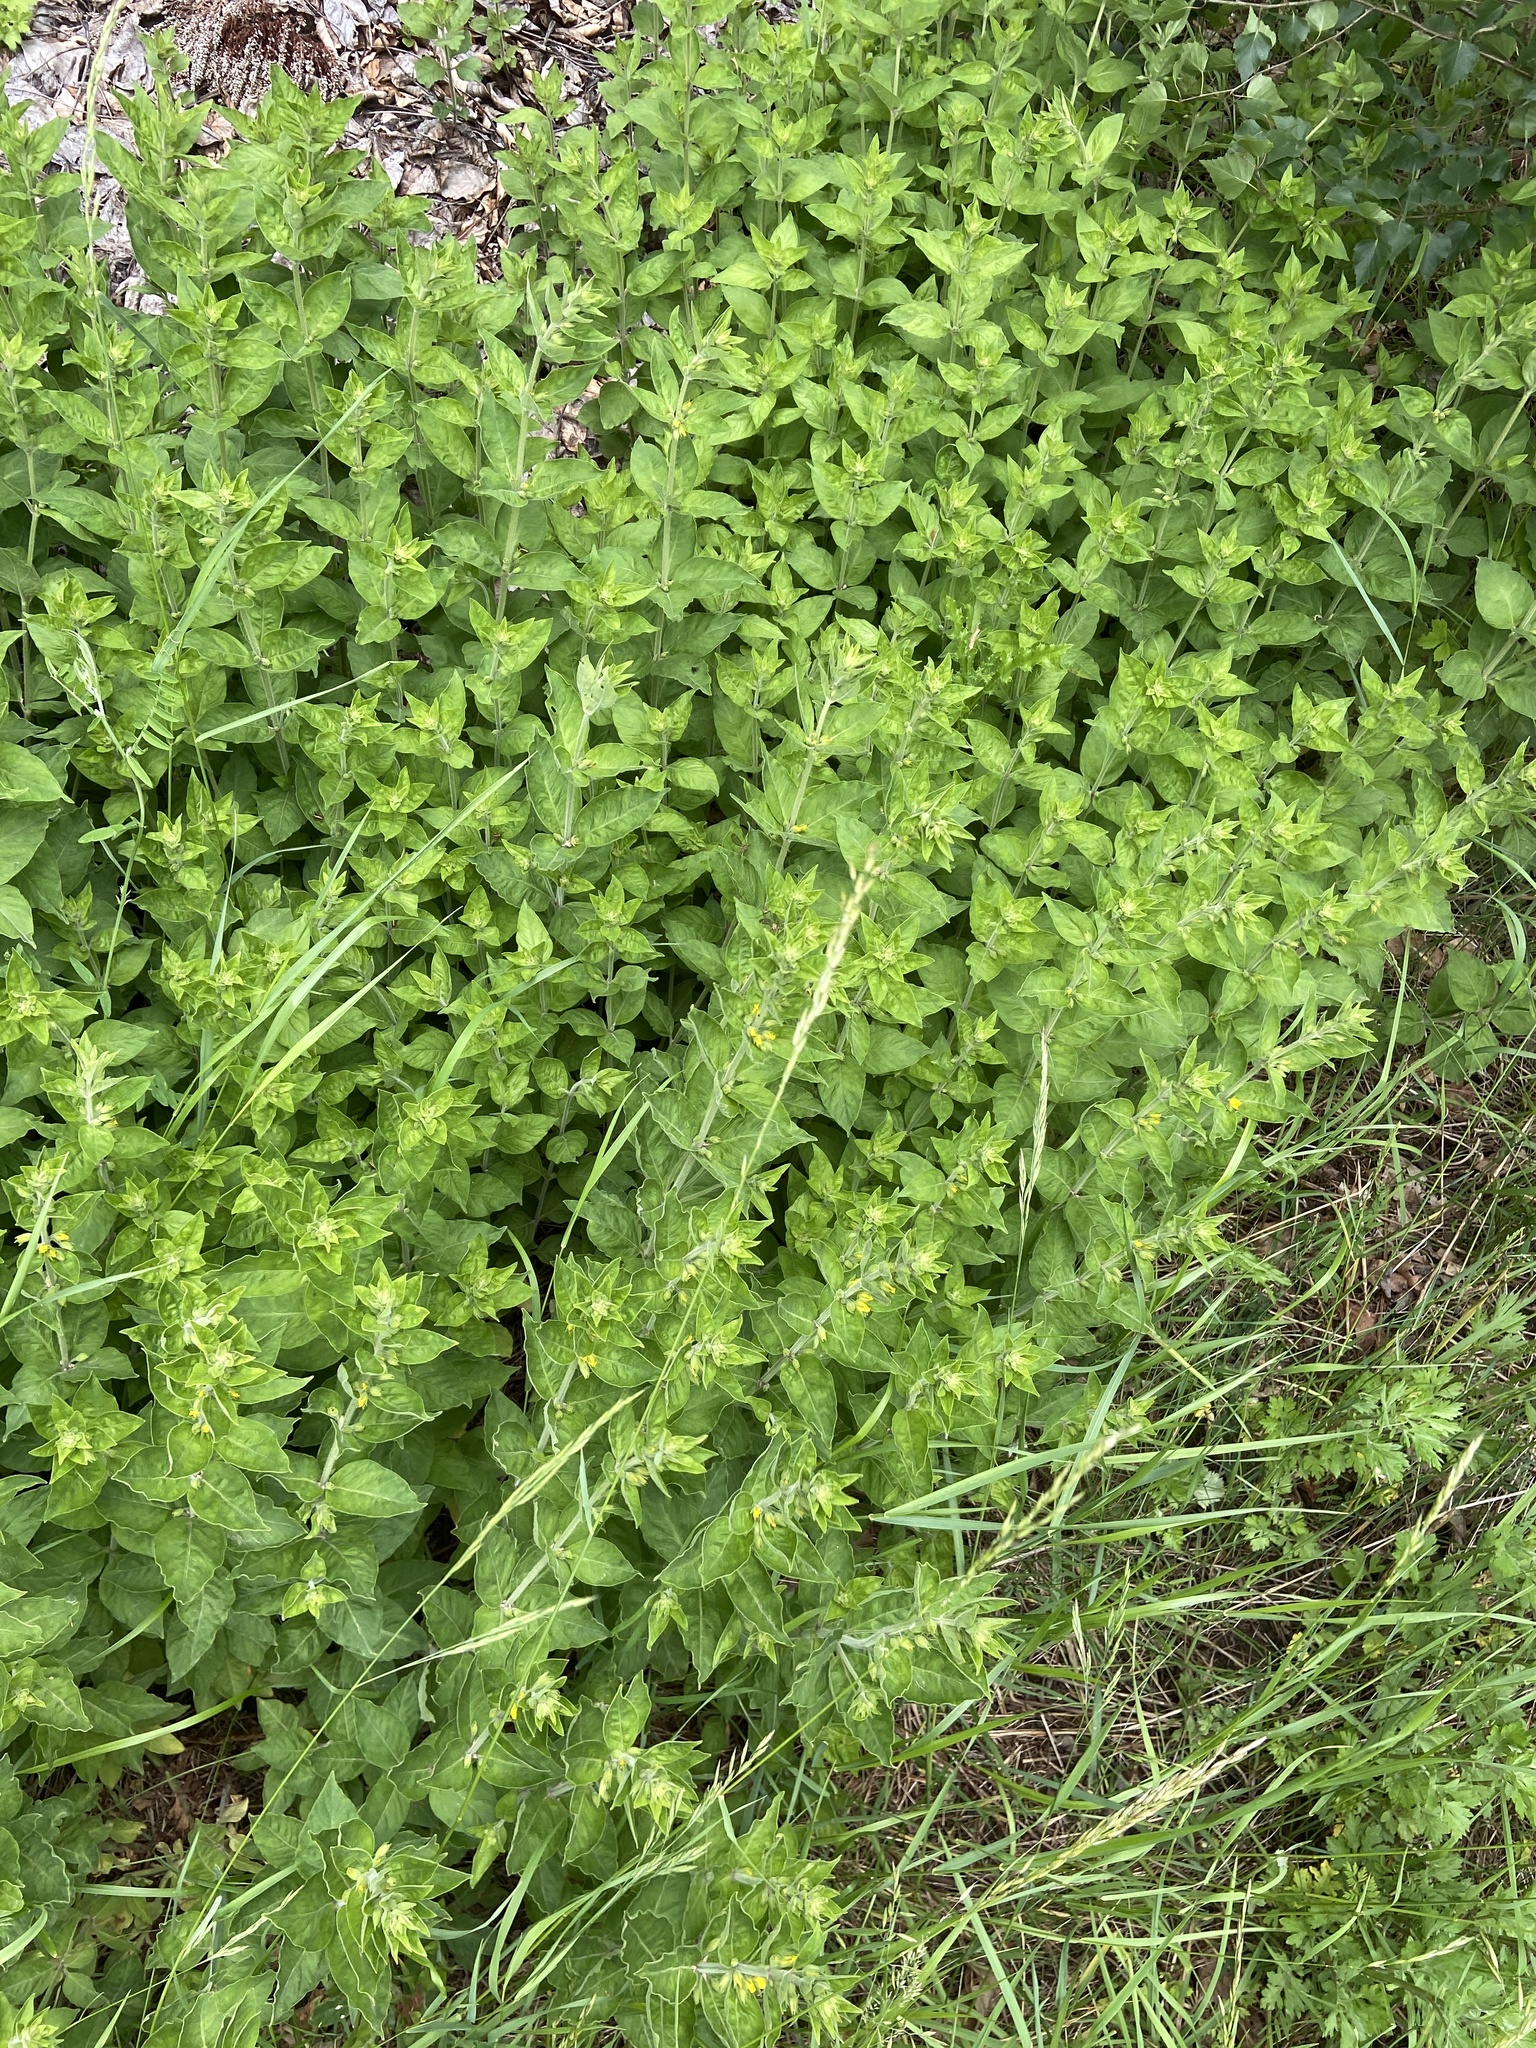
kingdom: Plantae
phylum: Tracheophyta
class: Magnoliopsida
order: Ericales
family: Primulaceae
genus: Lysimachia
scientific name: Lysimachia punctata
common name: Dotted loosestrife
